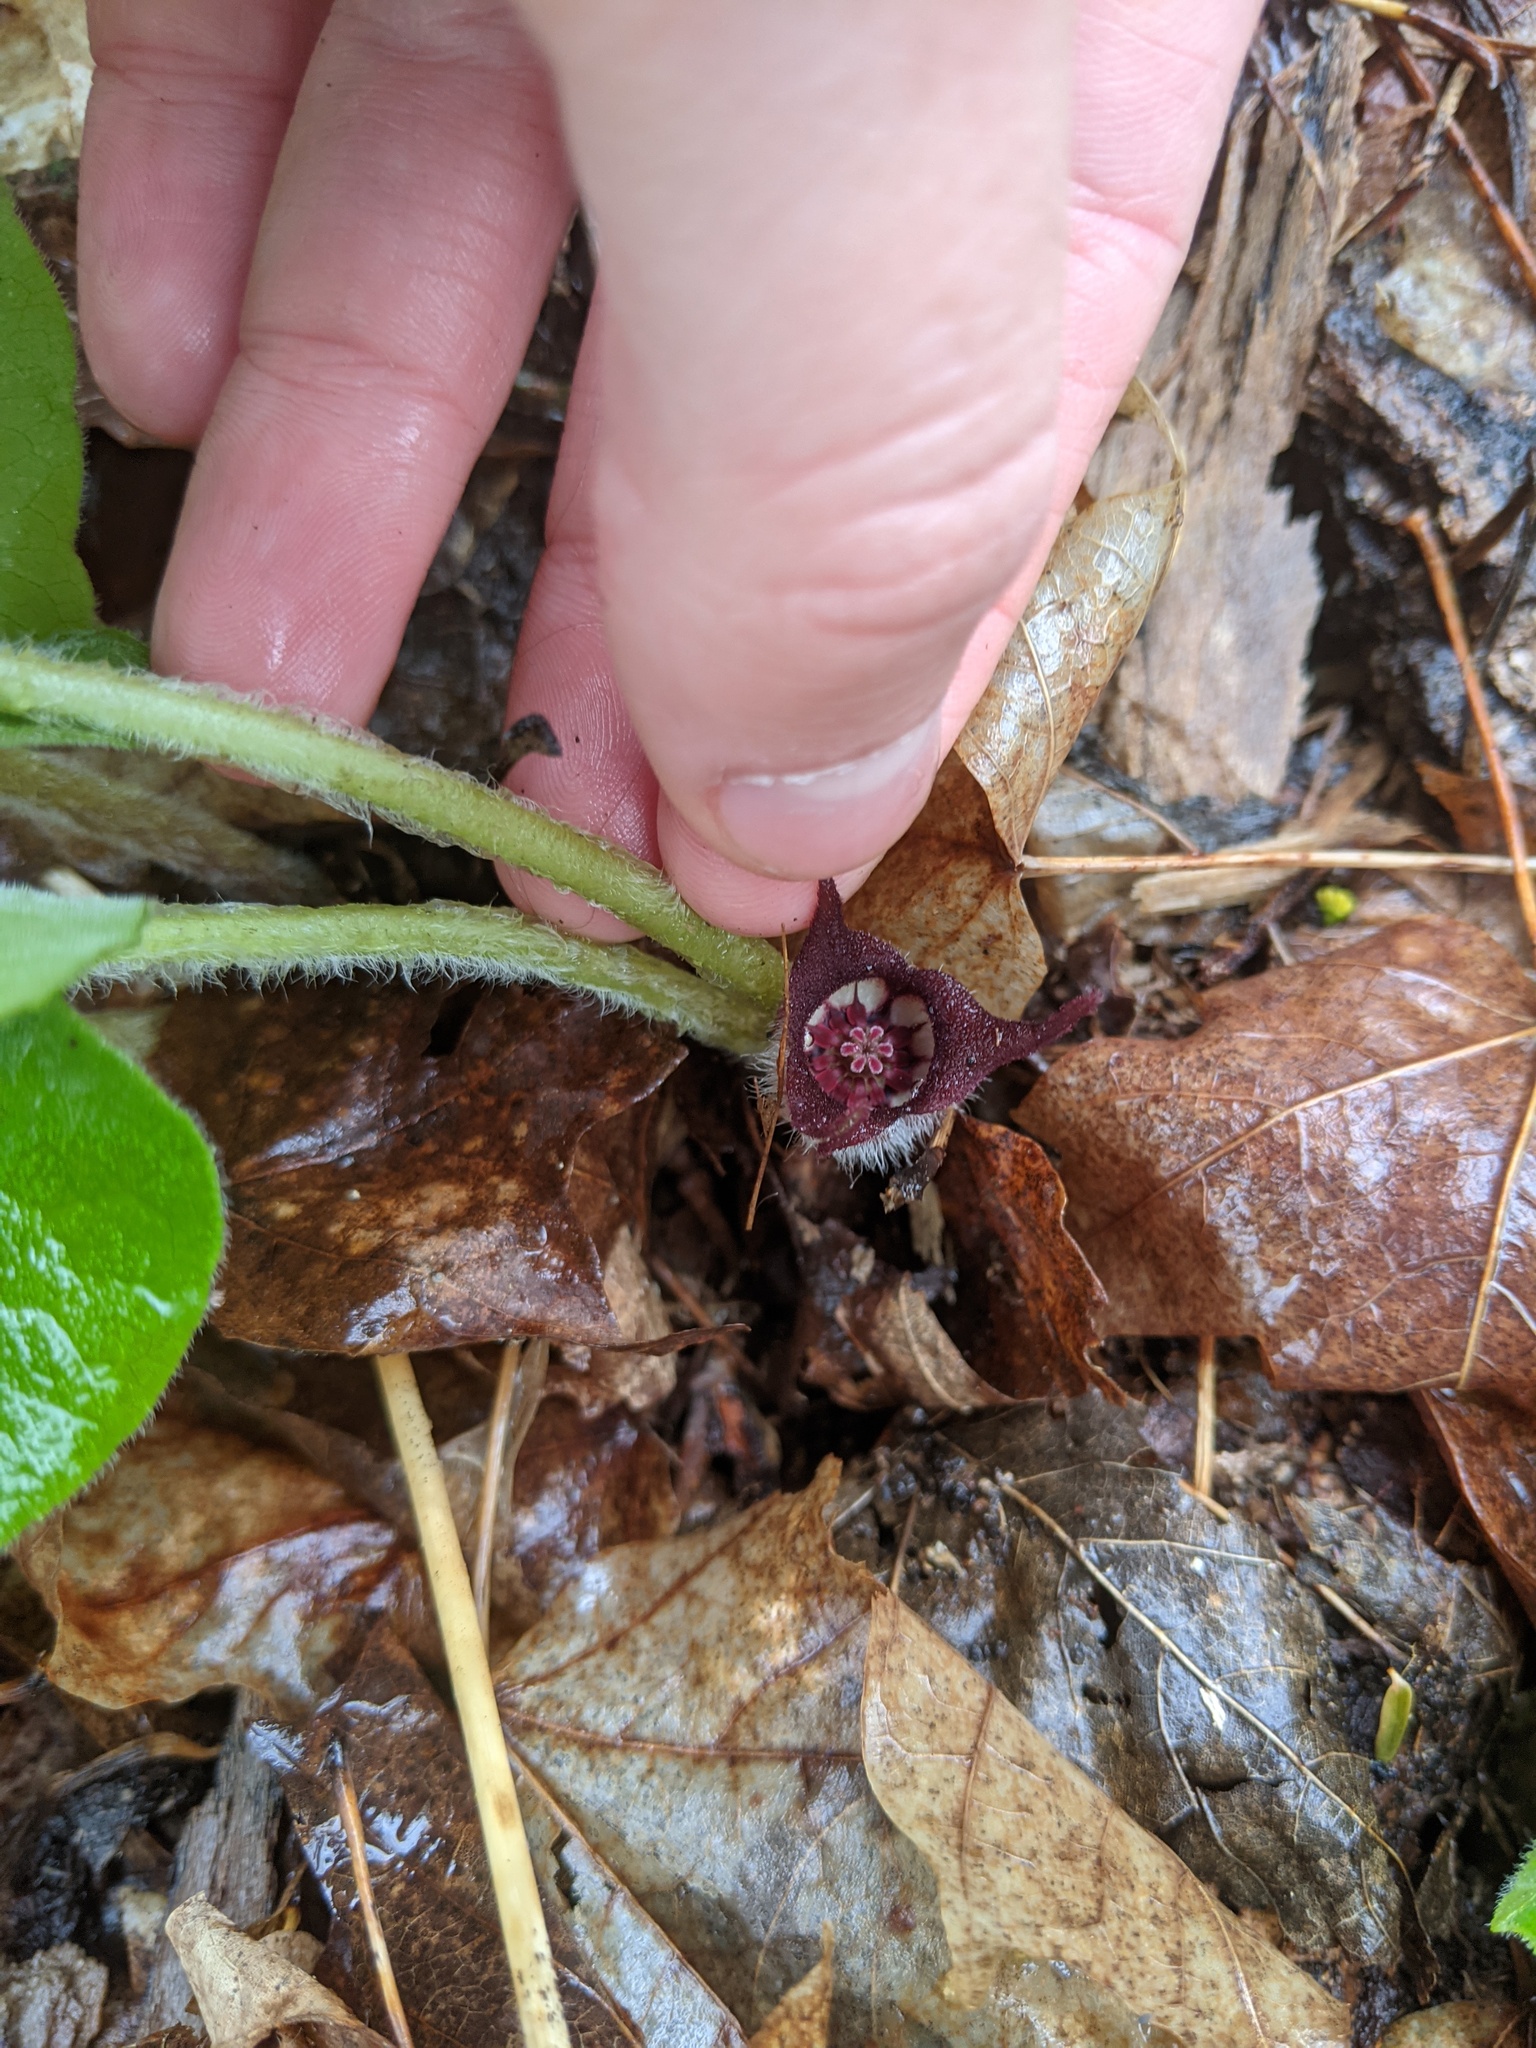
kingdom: Plantae
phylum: Tracheophyta
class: Magnoliopsida
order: Piperales
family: Aristolochiaceae
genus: Asarum
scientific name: Asarum canadense
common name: Wild ginger
